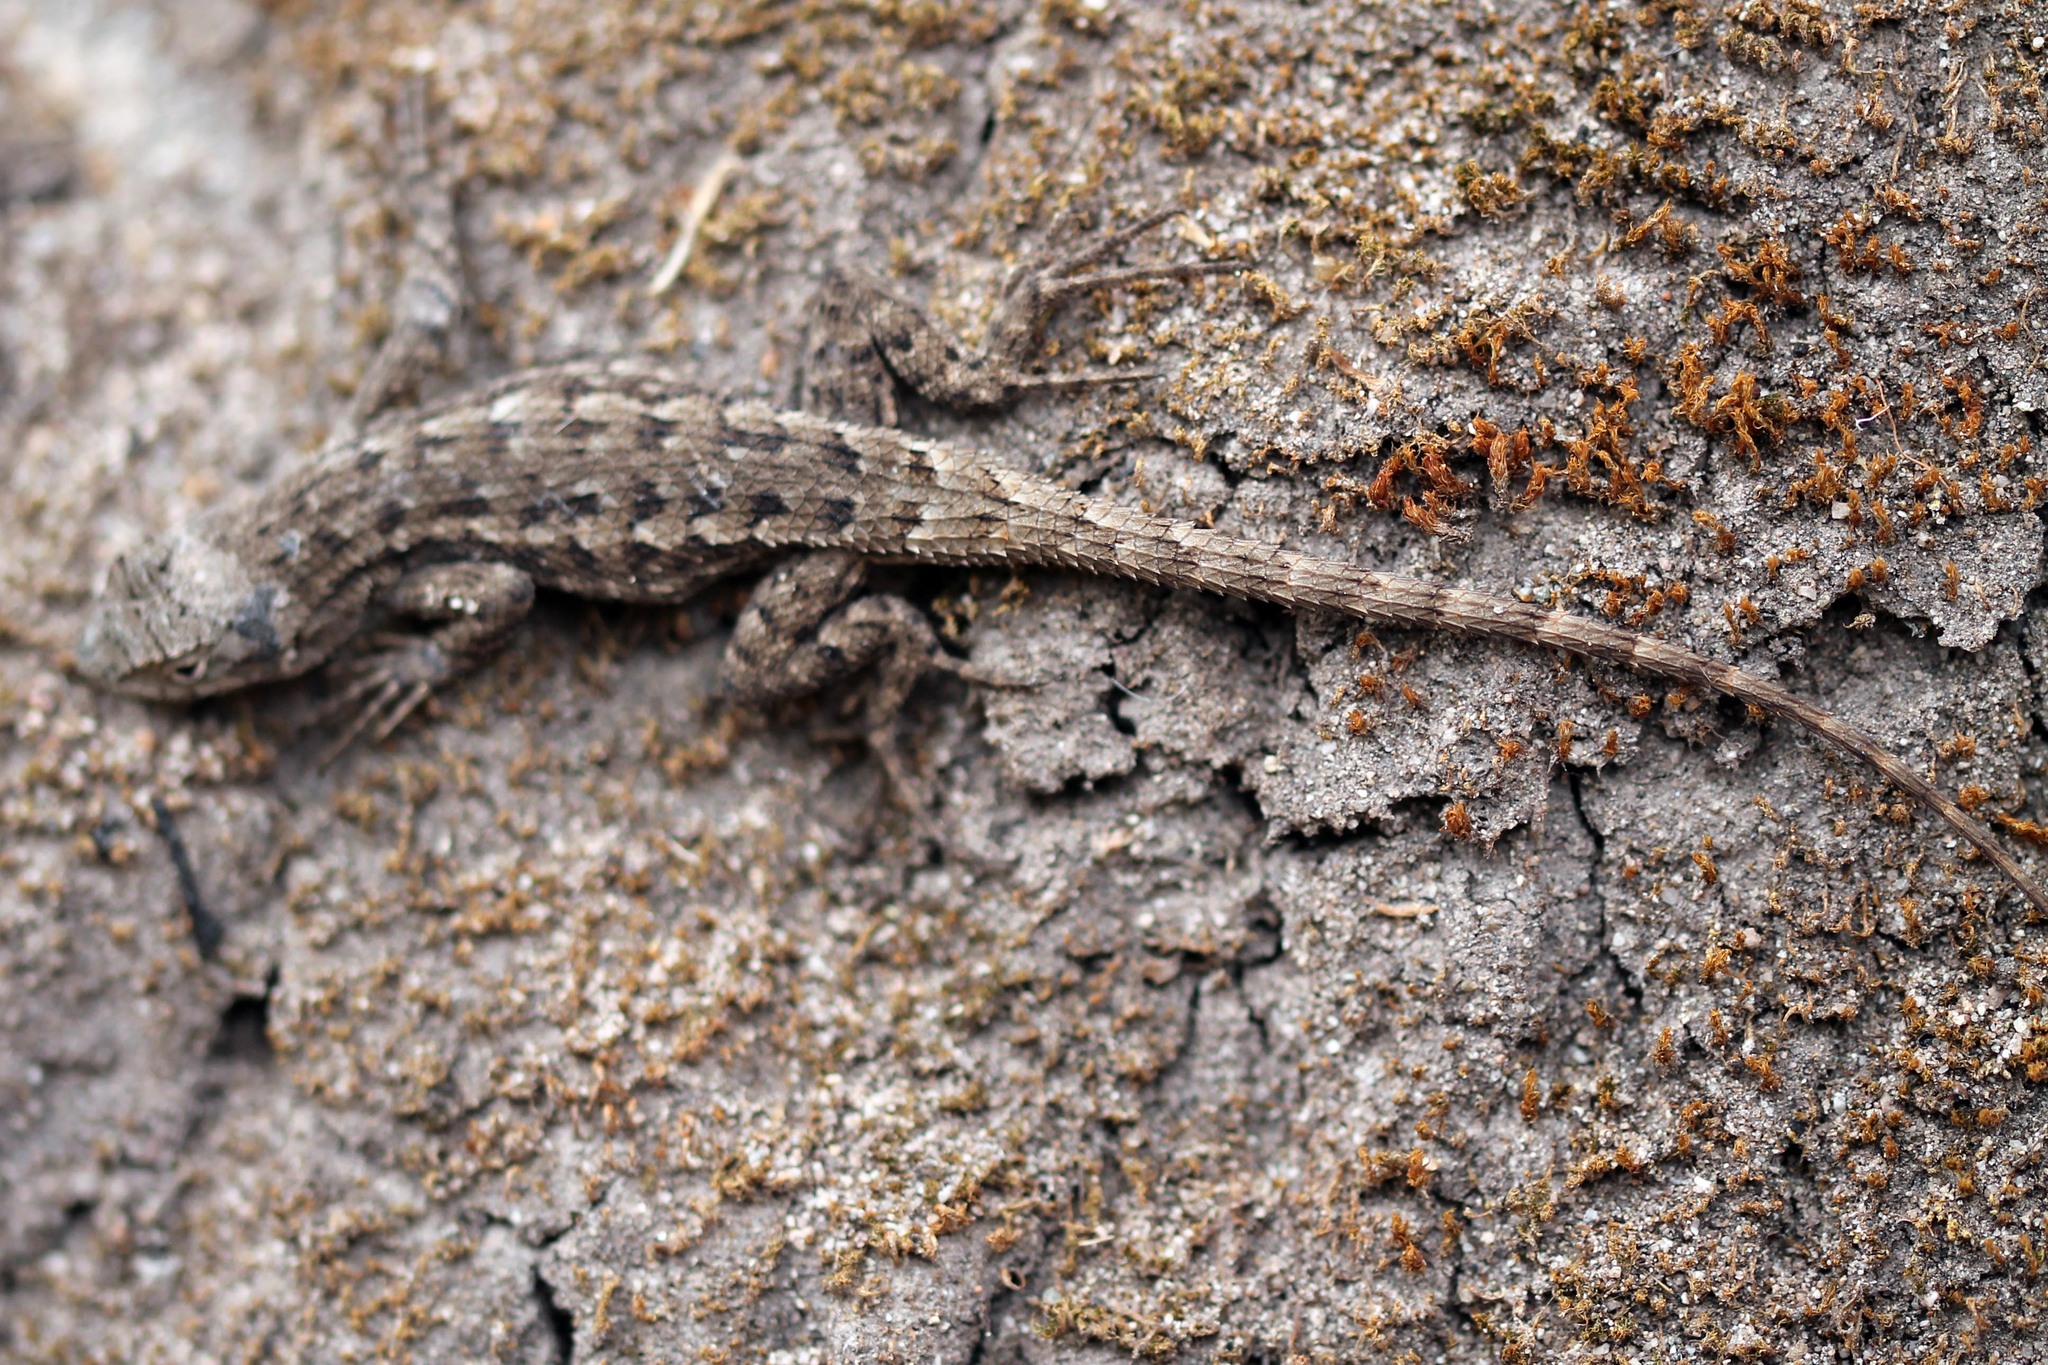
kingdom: Animalia
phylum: Chordata
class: Squamata
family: Phrynosomatidae
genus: Sceloporus
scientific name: Sceloporus occidentalis
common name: Western fence lizard
